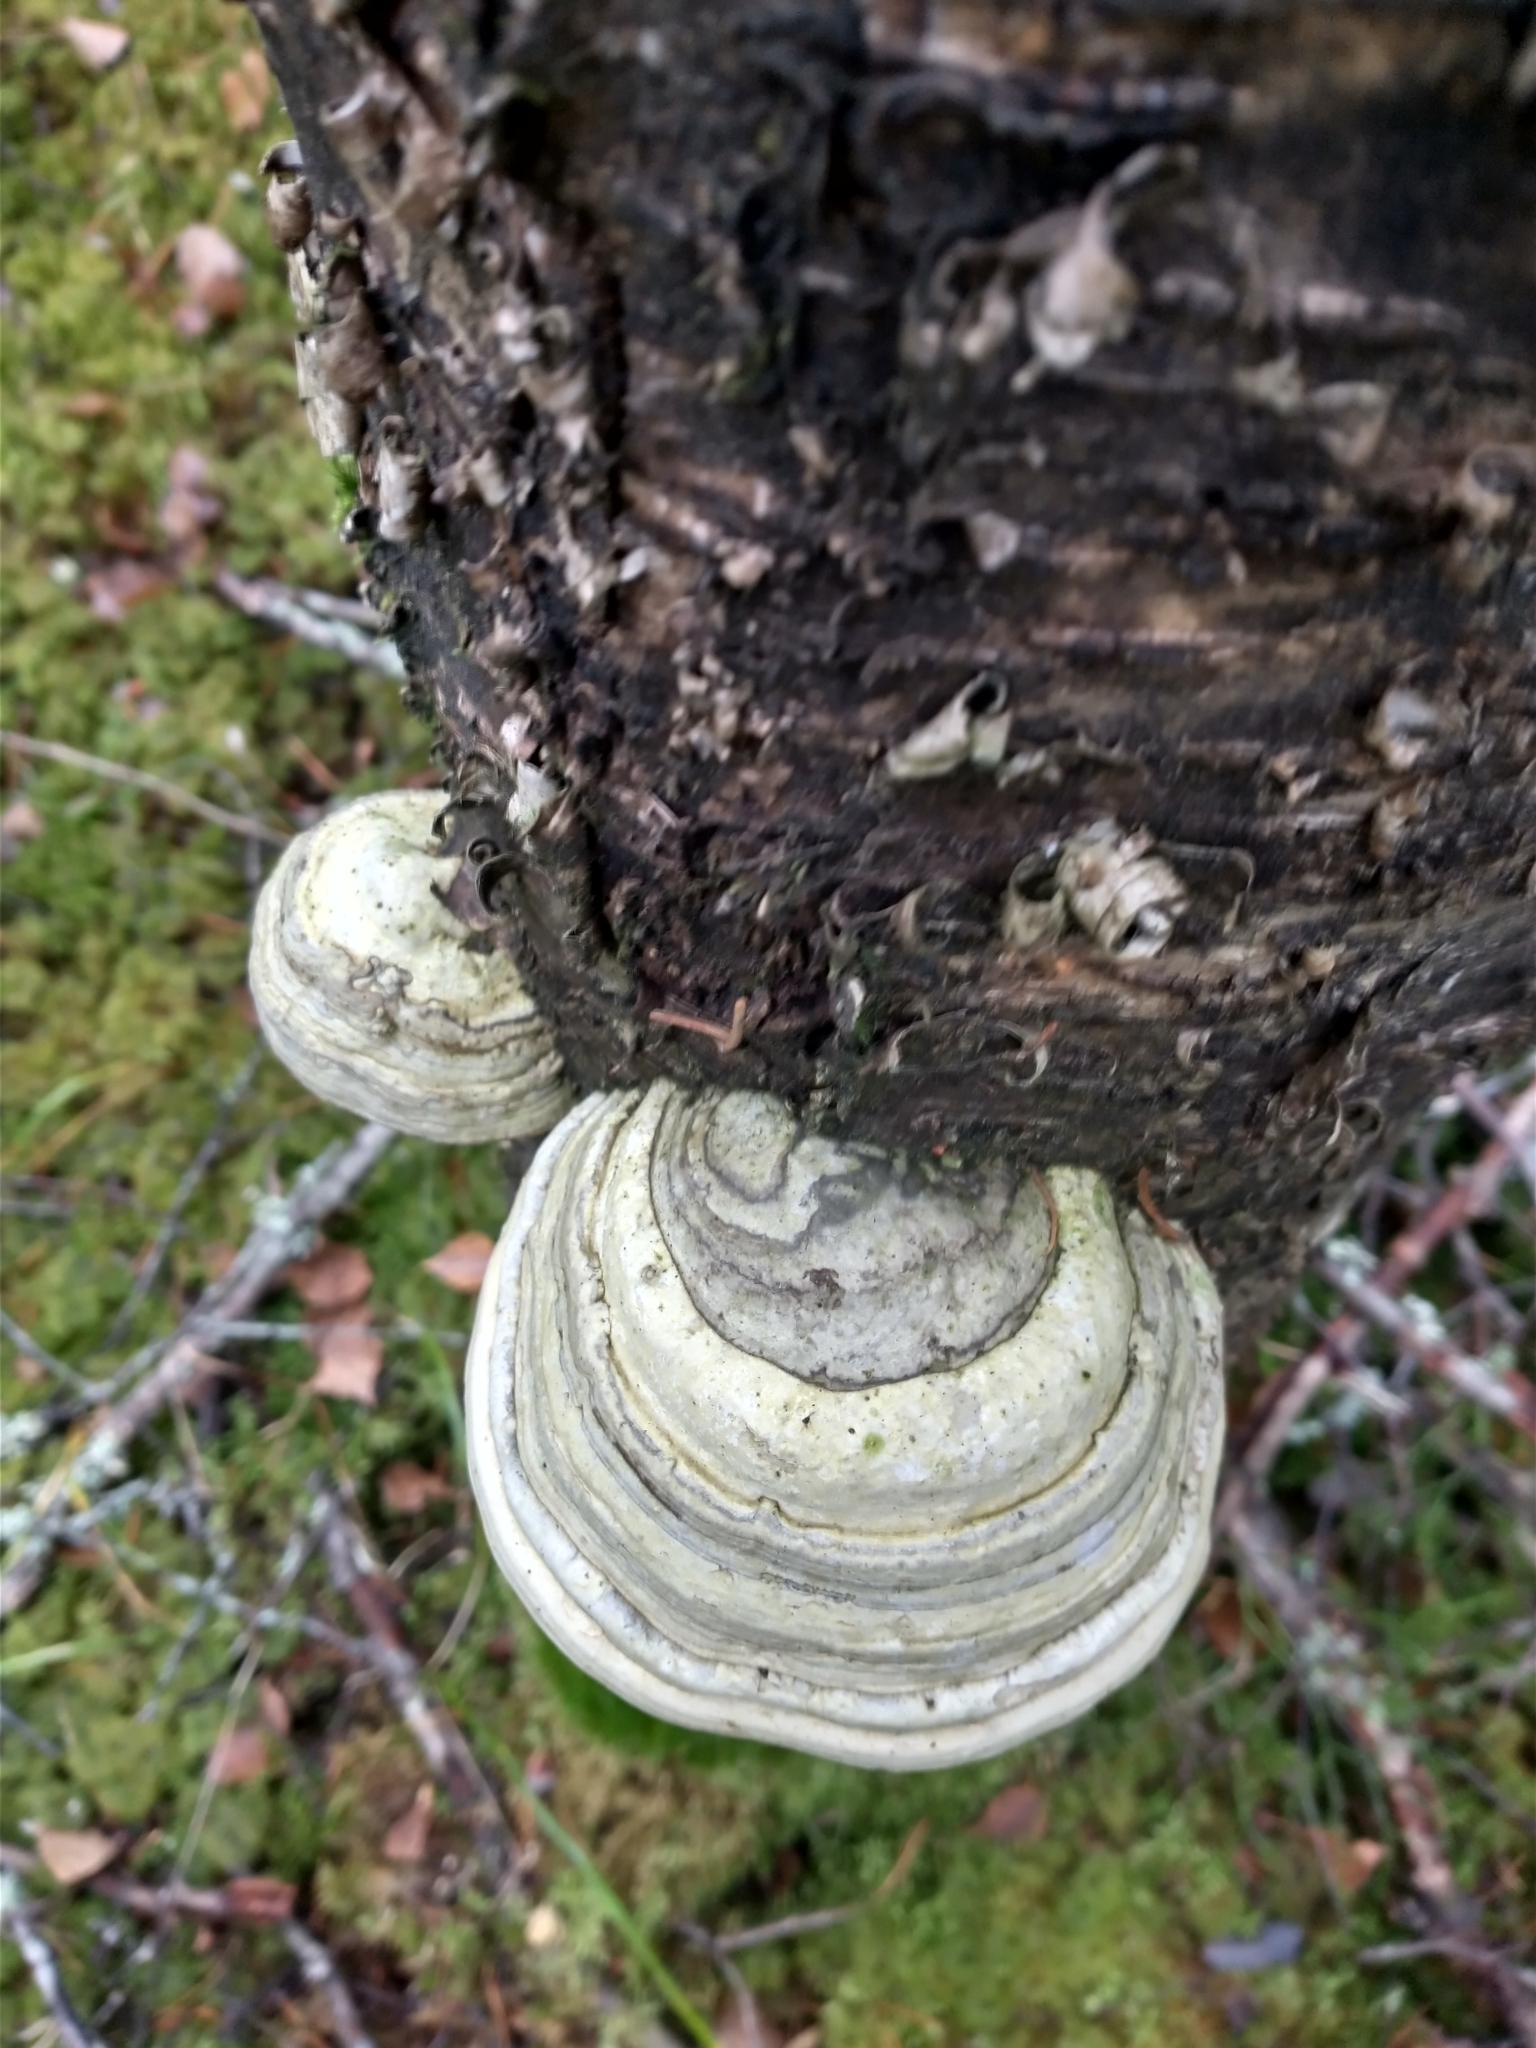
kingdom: Fungi
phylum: Basidiomycota
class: Agaricomycetes
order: Polyporales
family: Polyporaceae
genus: Fomes
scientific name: Fomes fomentarius
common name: Hoof fungus
